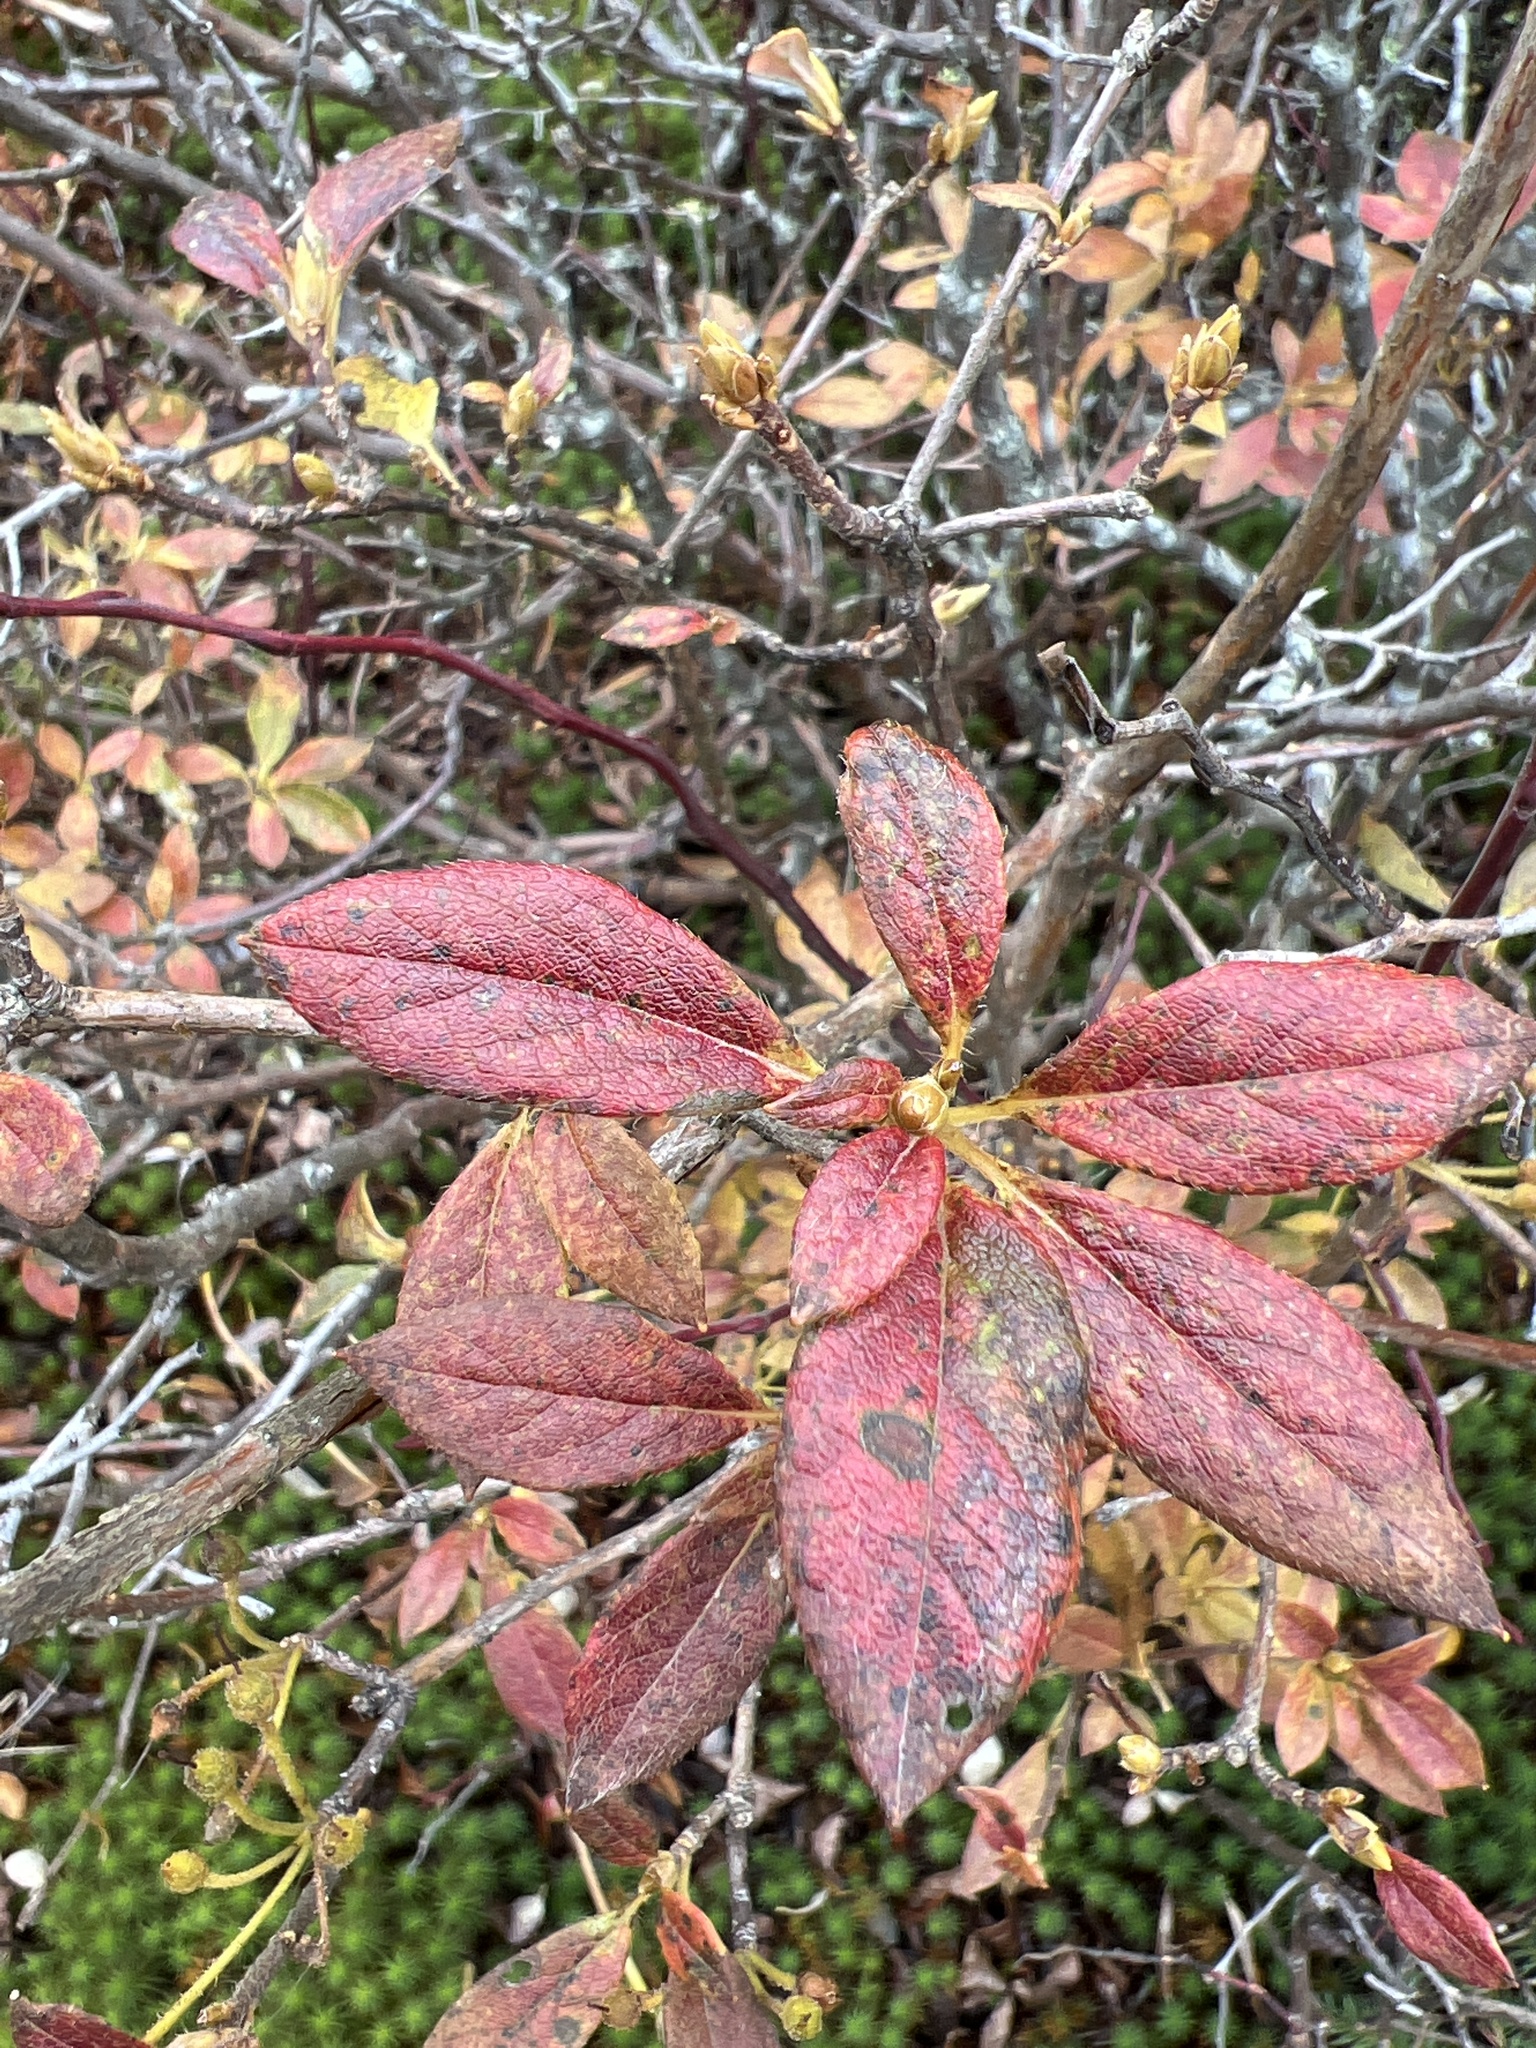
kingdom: Plantae
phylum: Tracheophyta
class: Magnoliopsida
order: Ericales
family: Ericaceae
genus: Rhododendron
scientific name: Rhododendron pilosum
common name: Hairy minniebush
